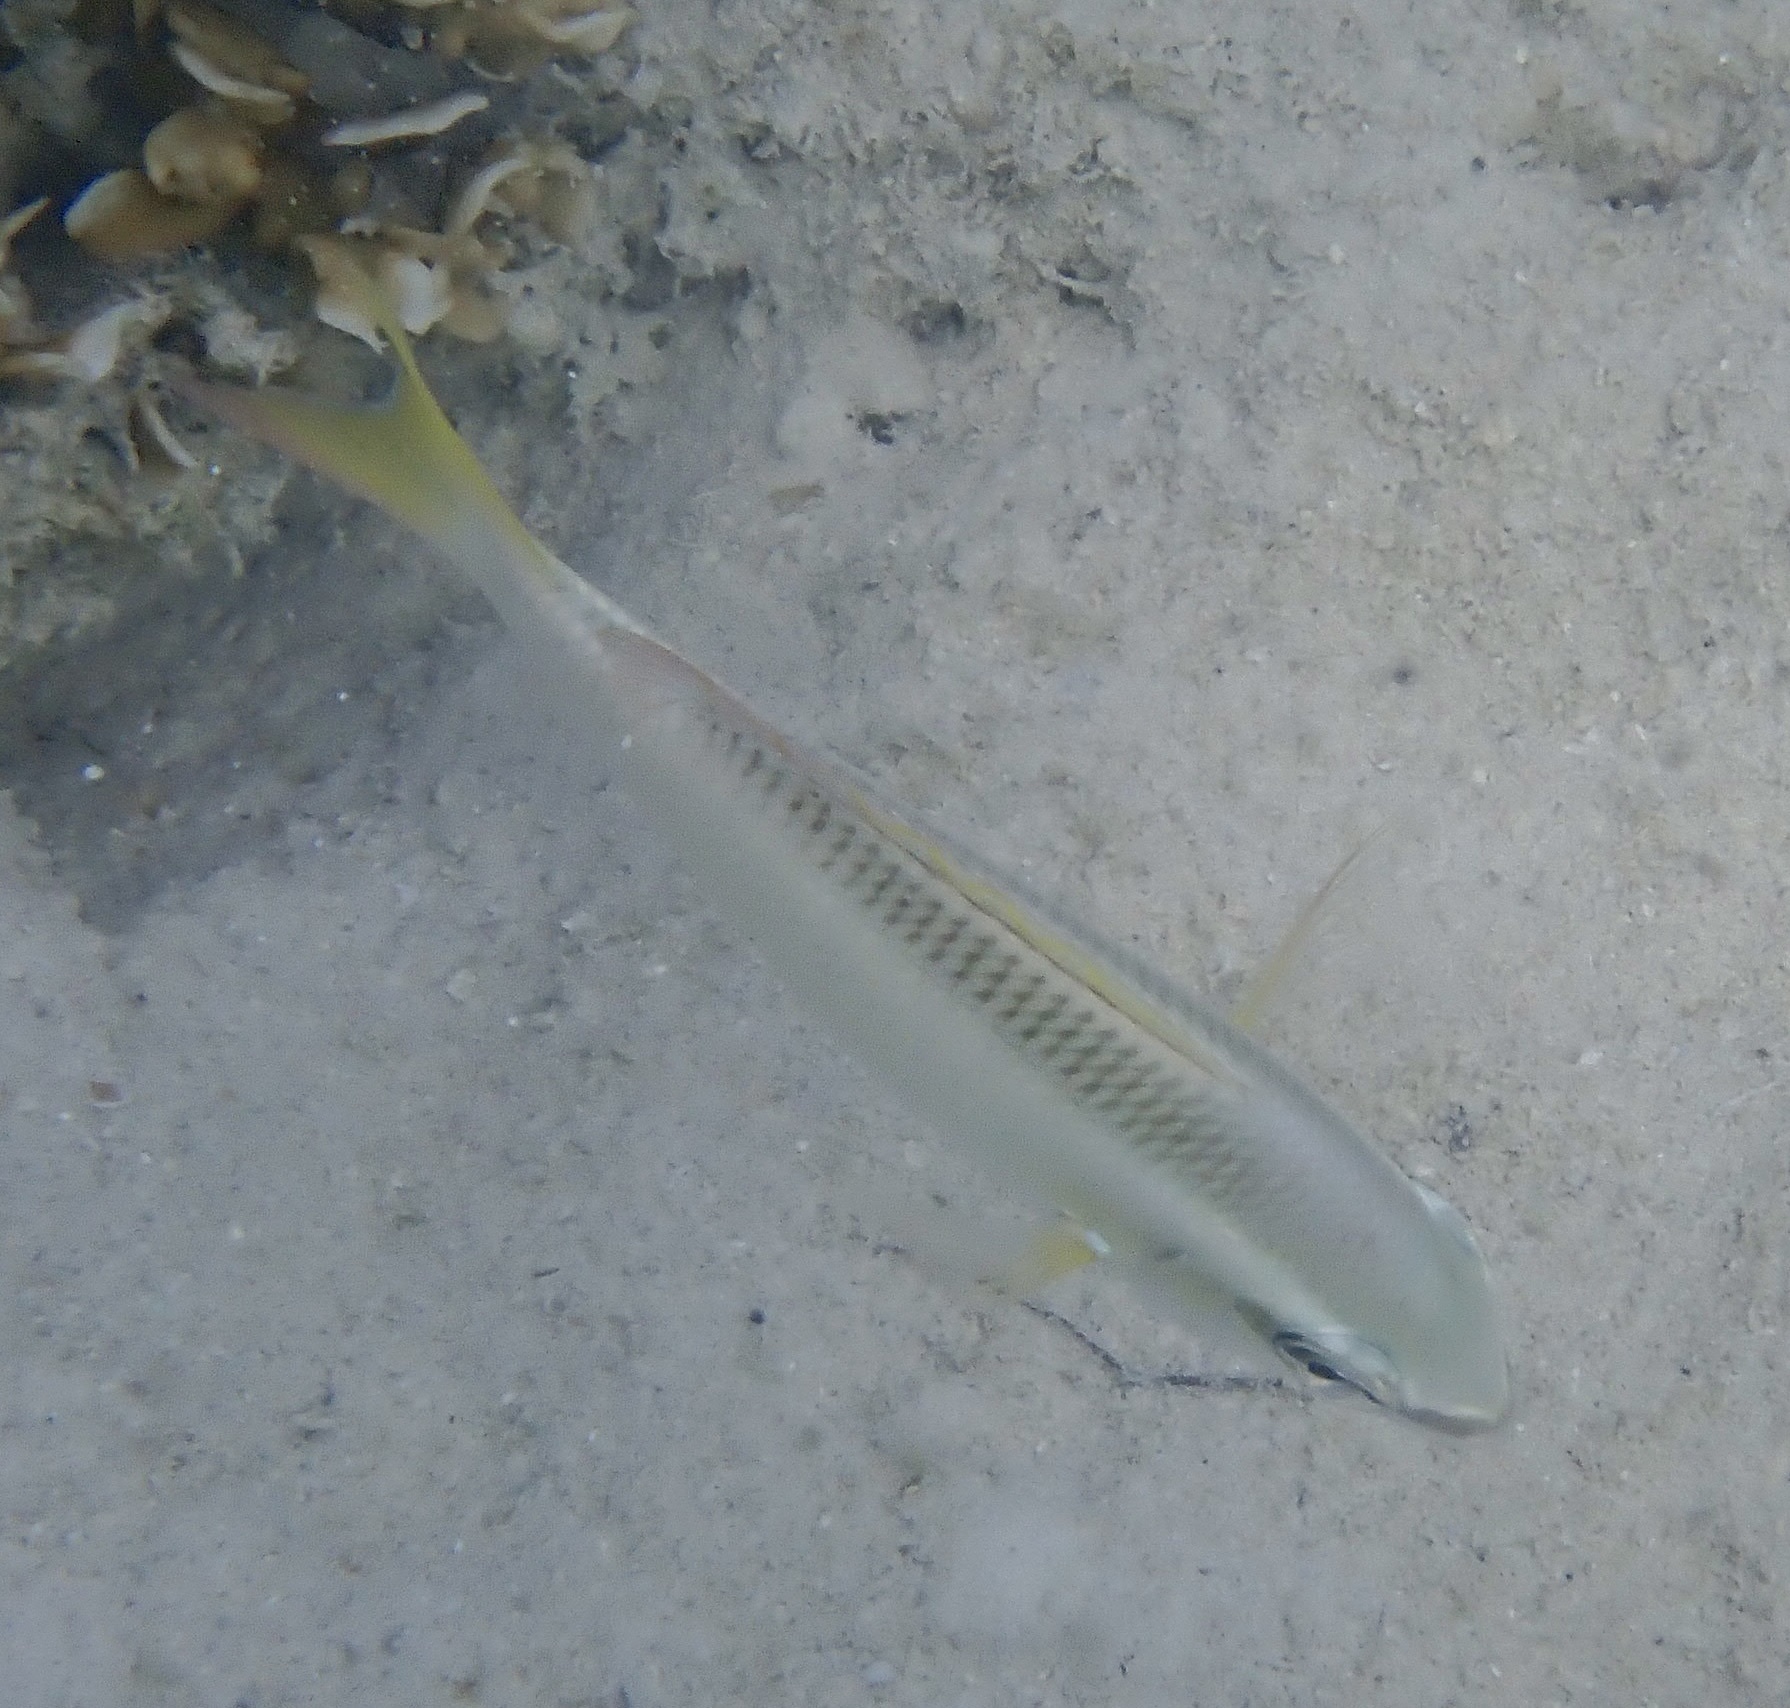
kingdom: Animalia
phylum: Chordata
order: Perciformes
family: Nemipteridae
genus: Scolopsis
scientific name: Scolopsis affinis
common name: Peters' monocle bream
